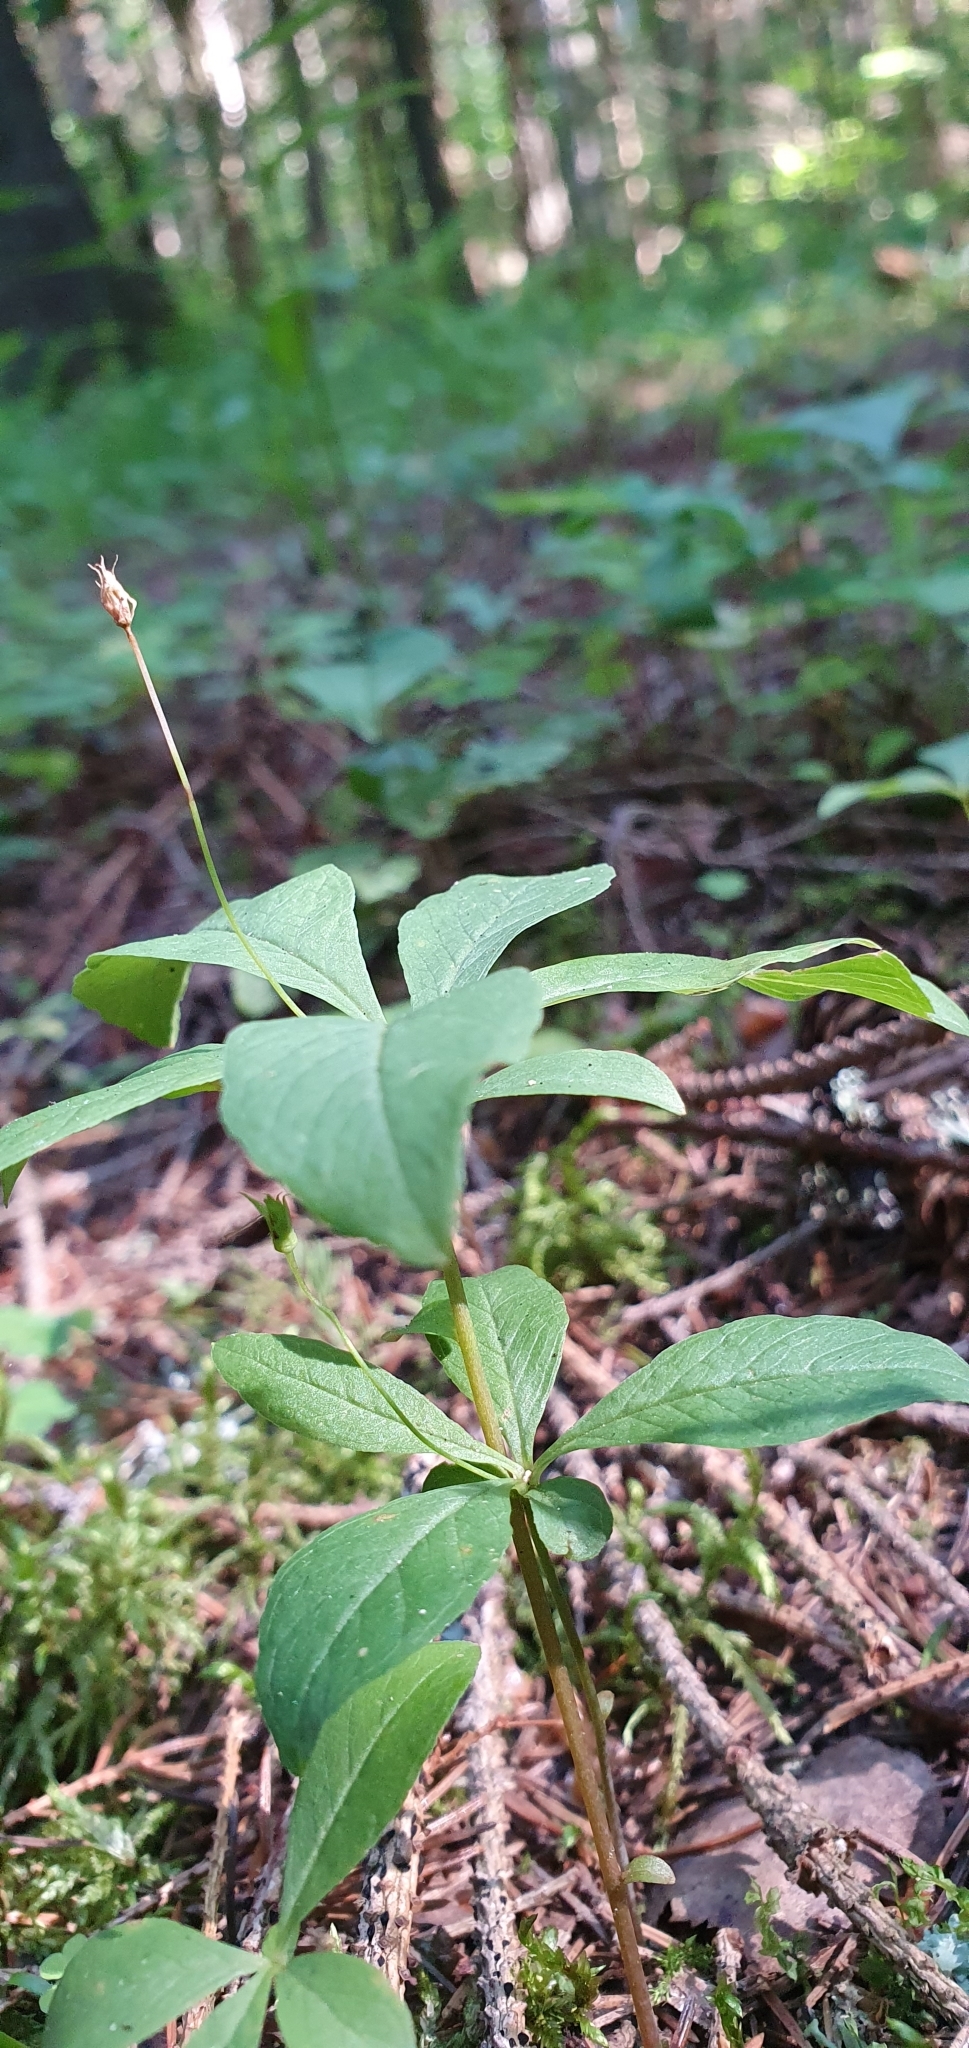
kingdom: Plantae
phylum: Tracheophyta
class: Magnoliopsida
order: Ericales
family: Primulaceae
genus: Lysimachia
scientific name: Lysimachia europaea
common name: Arctic starflower
